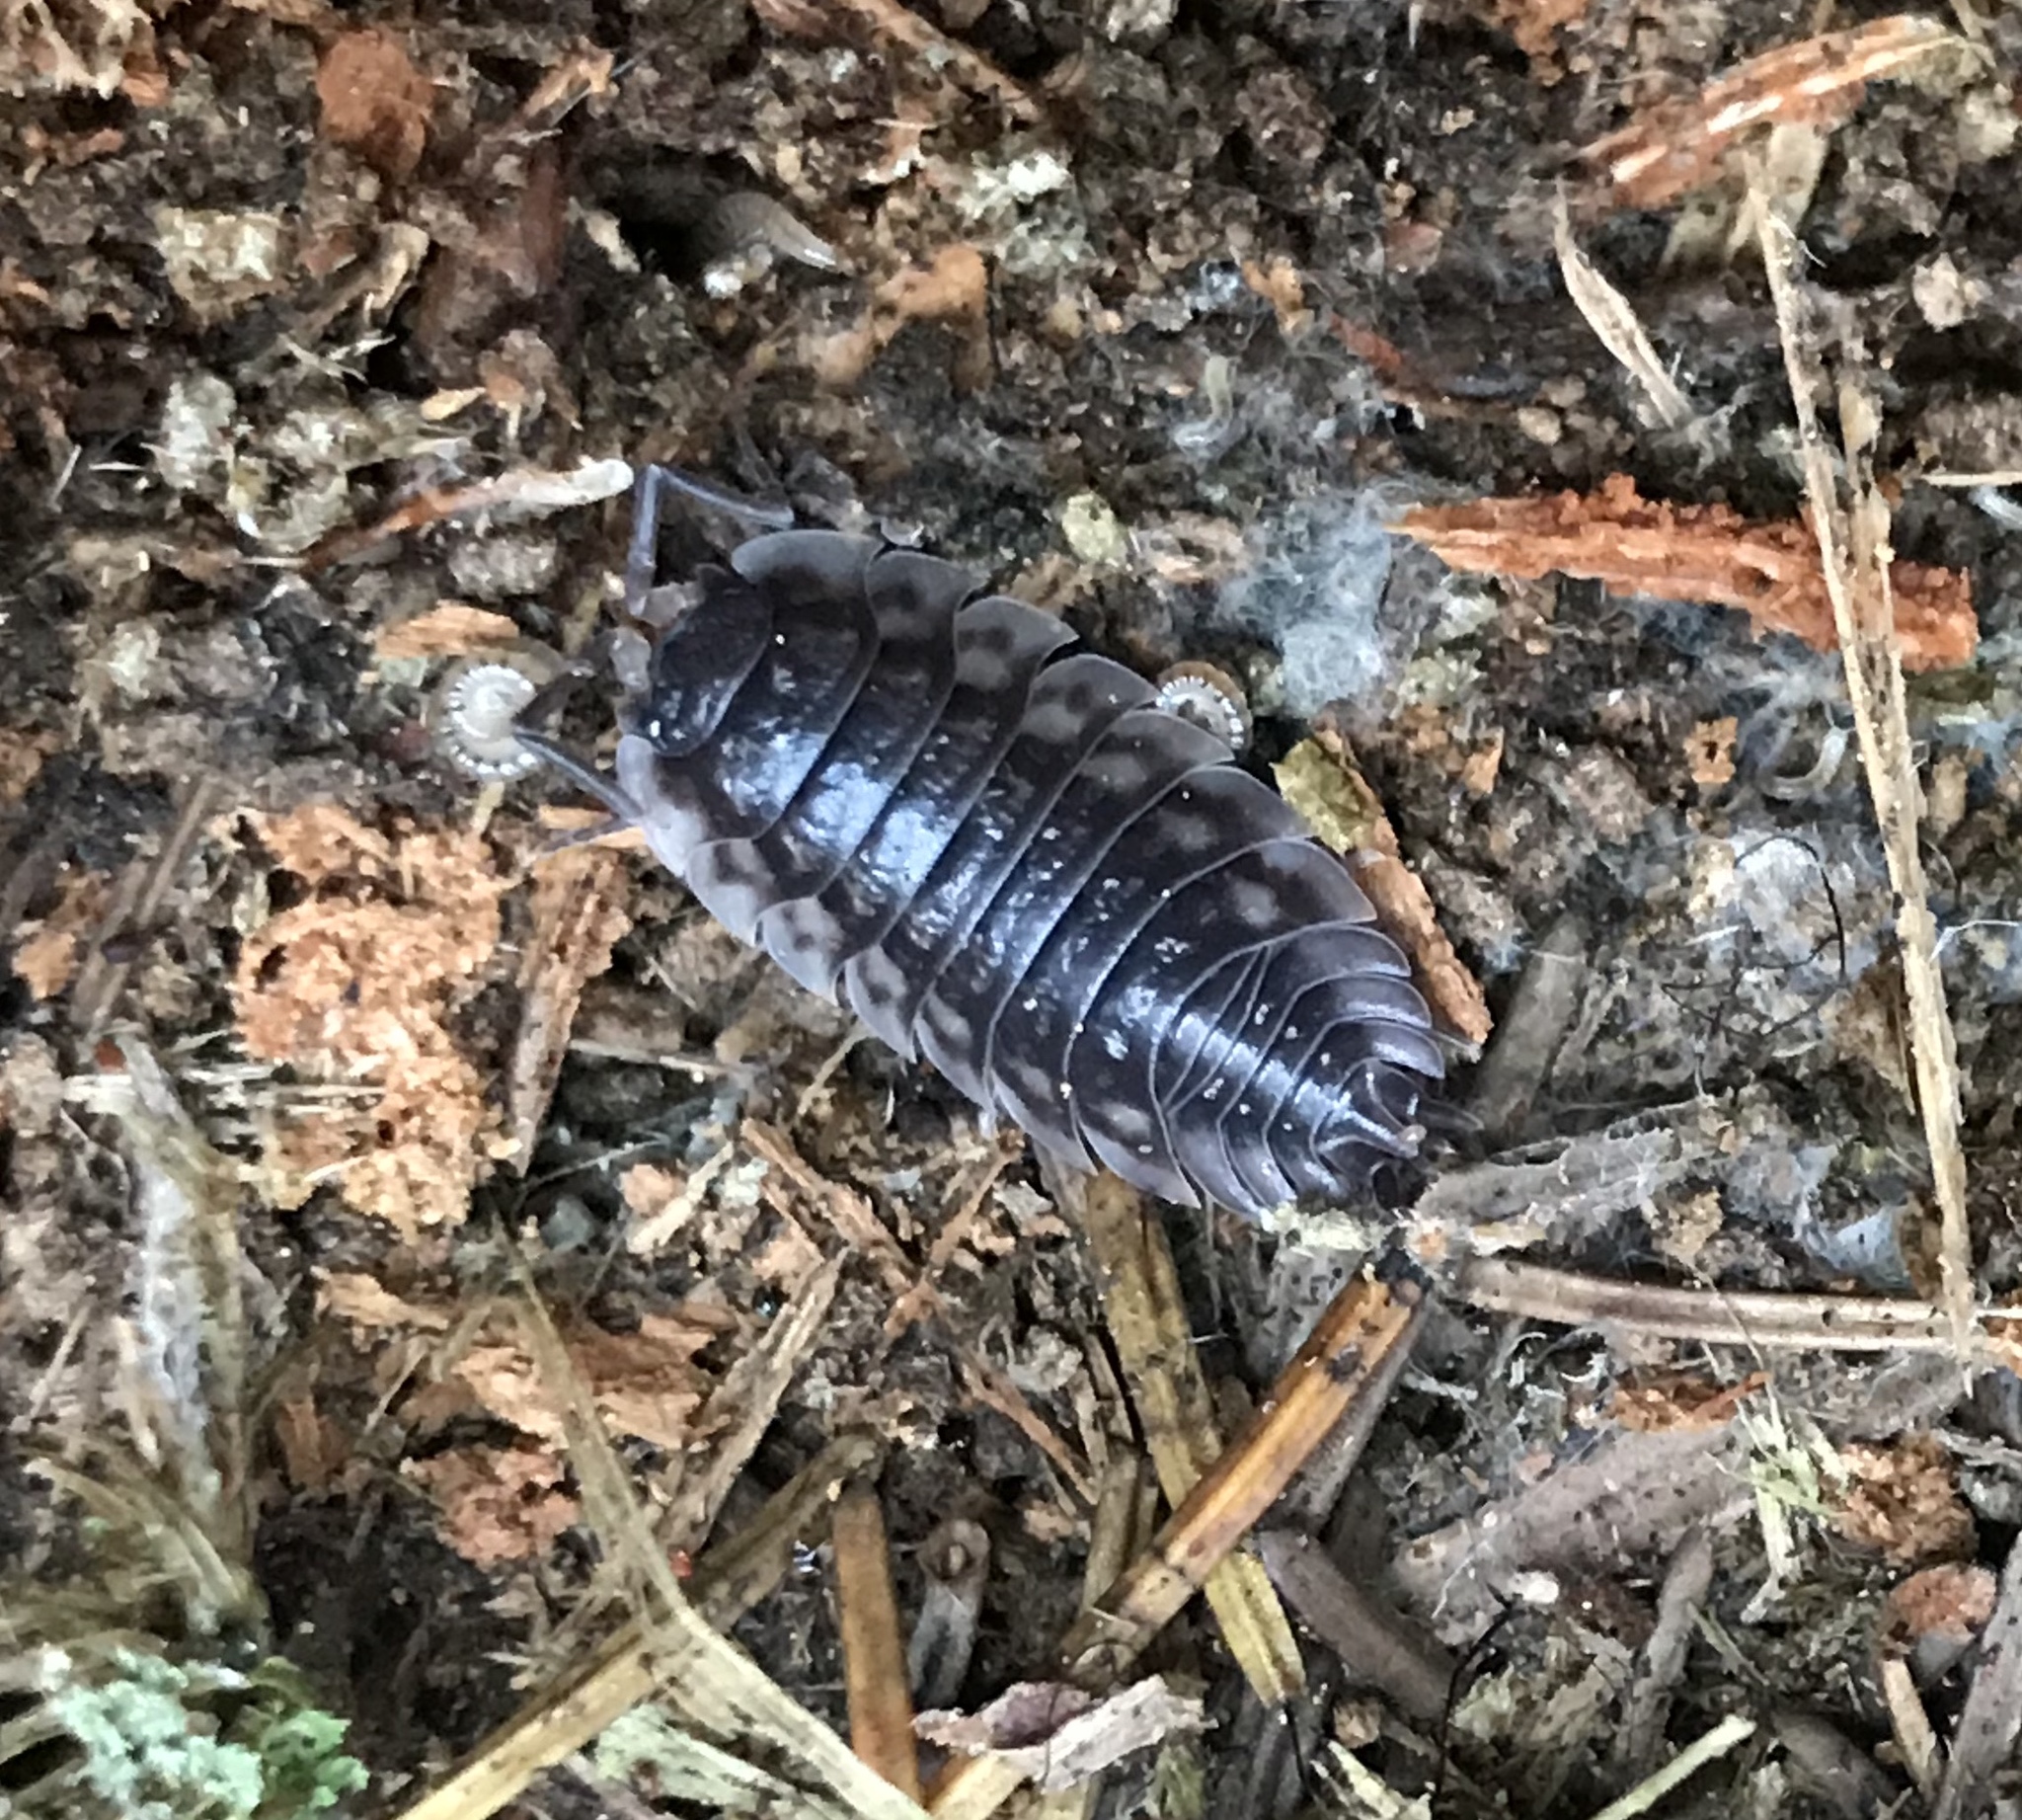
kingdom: Animalia
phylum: Arthropoda
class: Malacostraca
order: Isopoda
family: Oniscidae
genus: Oniscus
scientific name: Oniscus asellus
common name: Common shiny woodlouse
